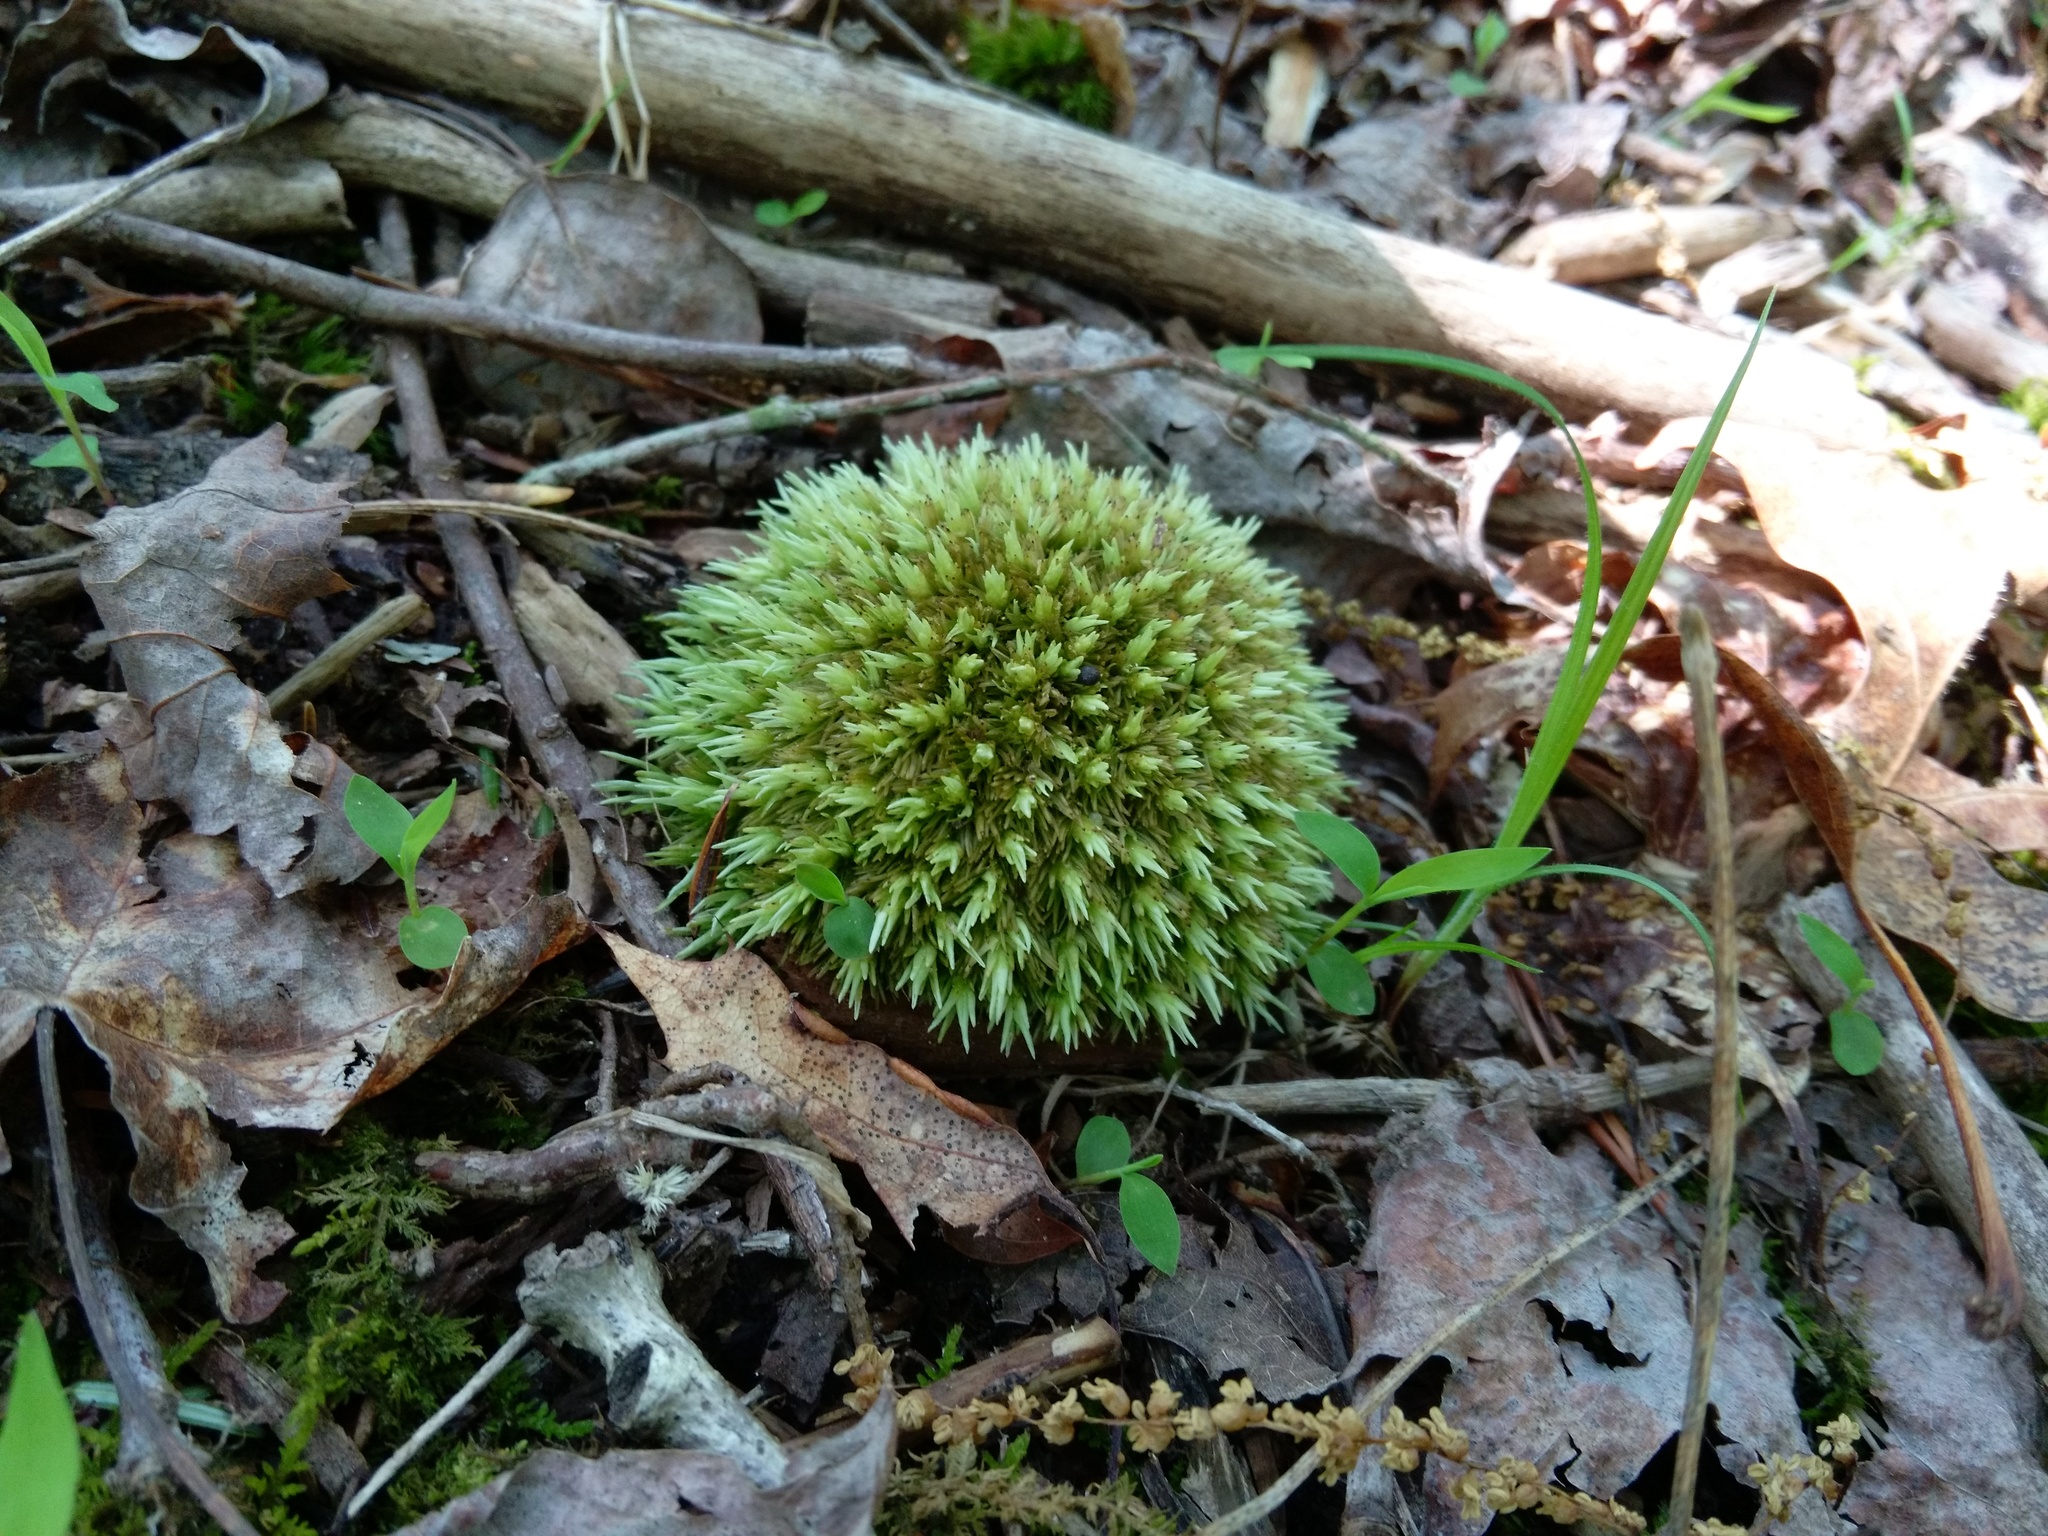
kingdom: Plantae
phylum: Bryophyta
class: Bryopsida
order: Dicranales
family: Leucobryaceae
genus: Leucobryum
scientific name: Leucobryum glaucum
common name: Large white-moss
